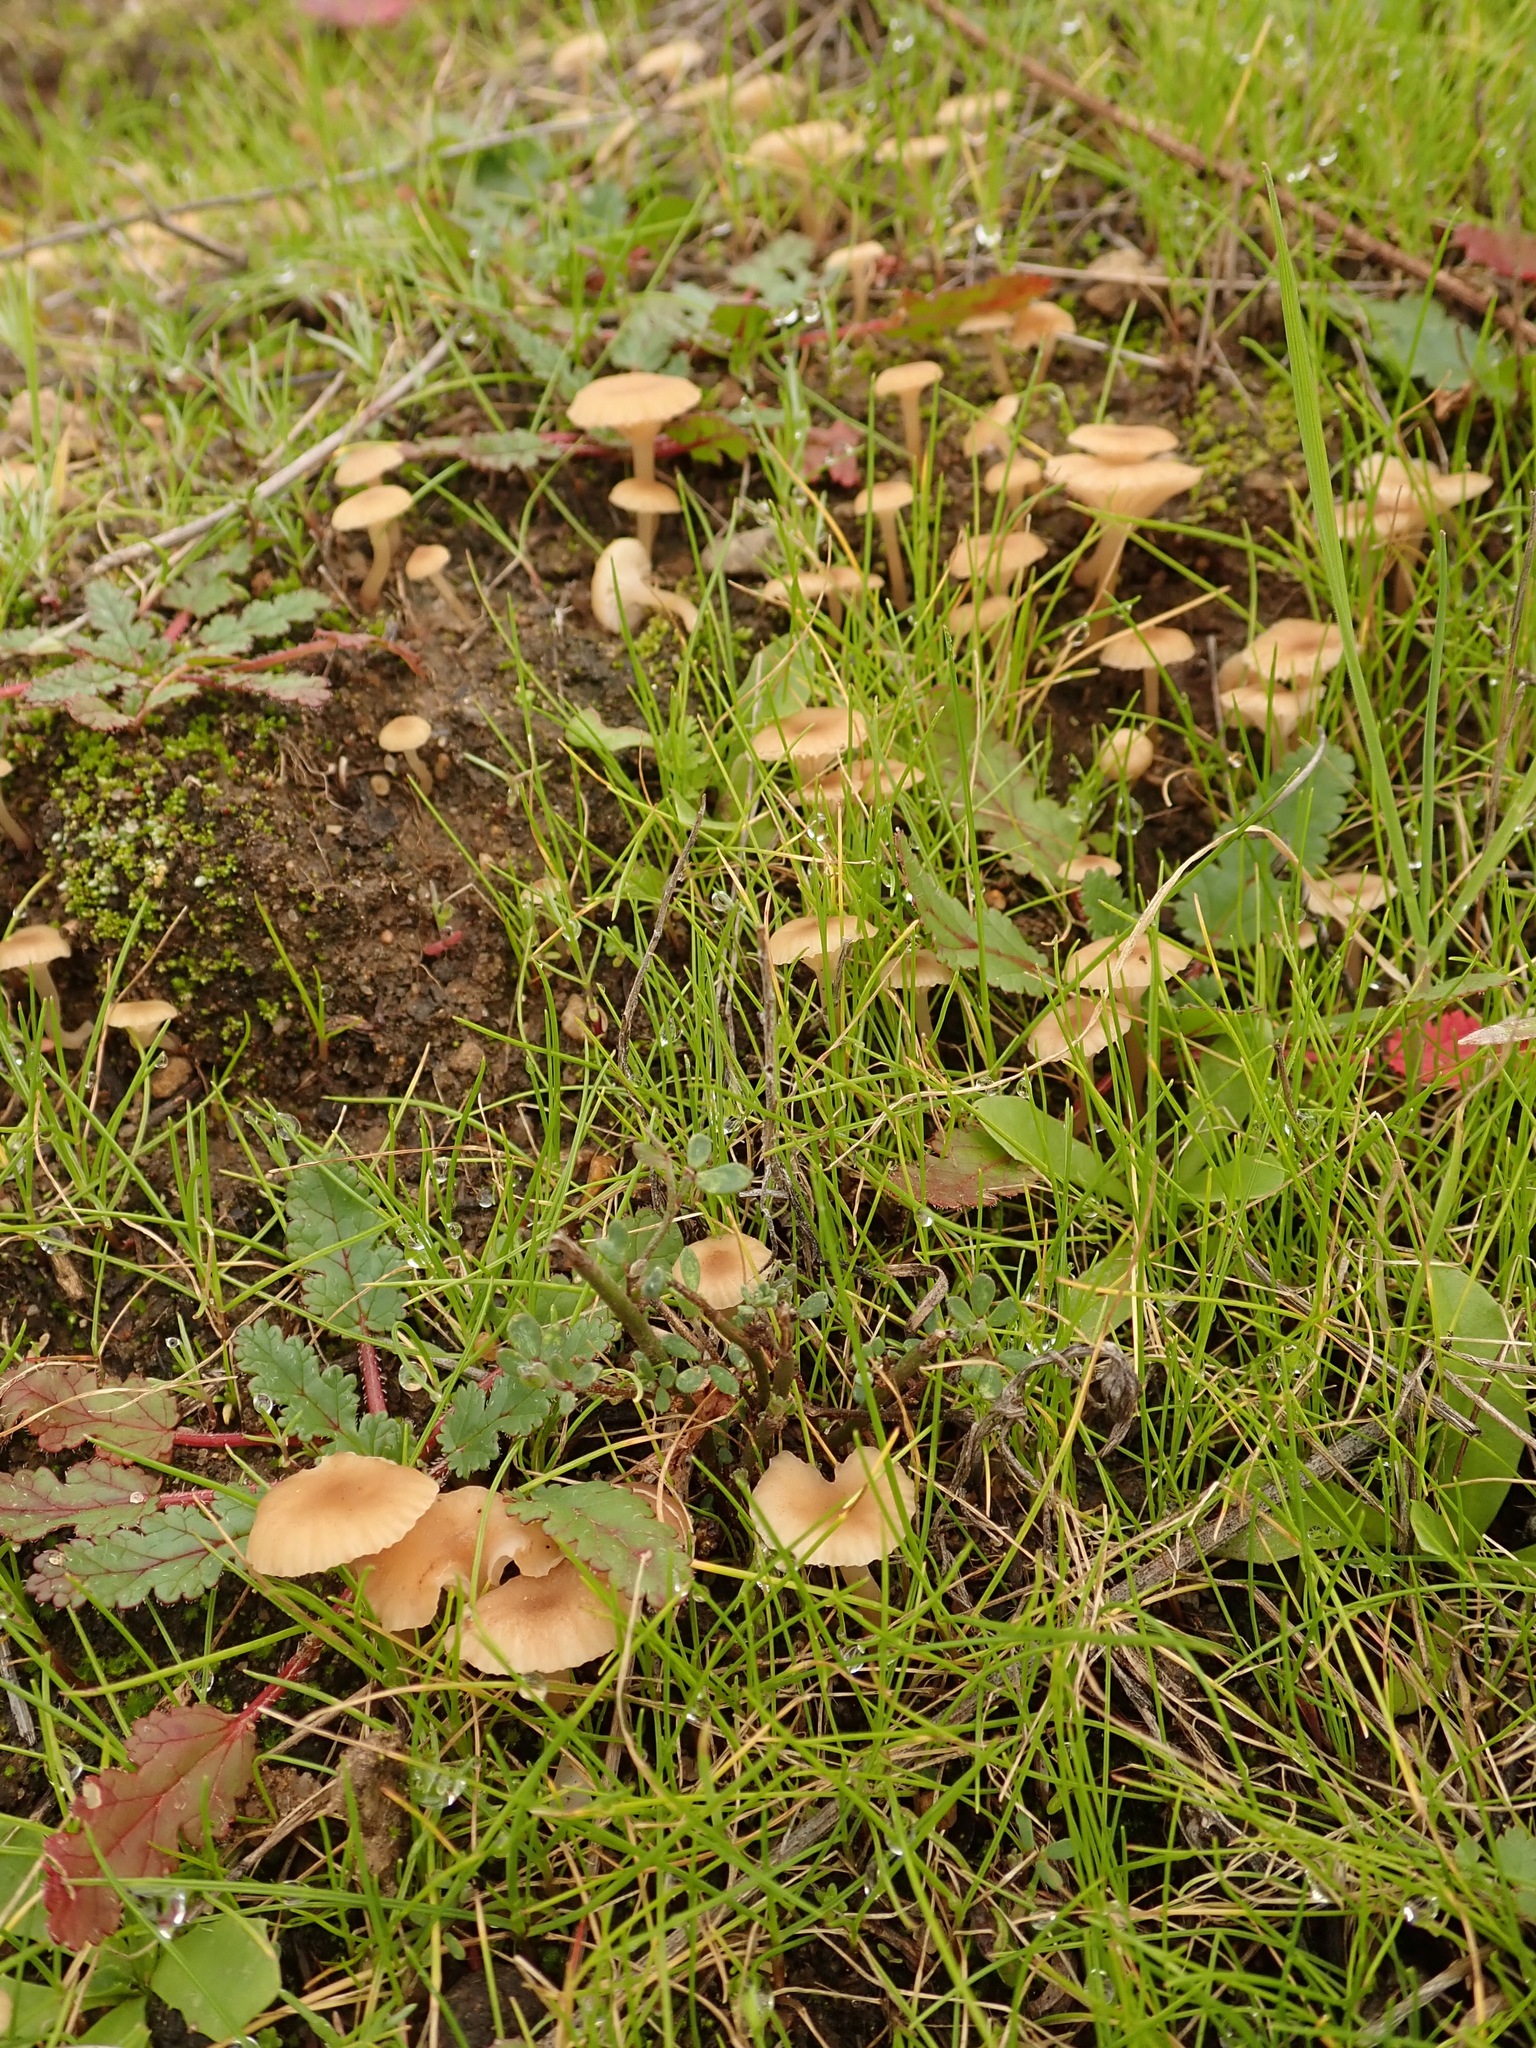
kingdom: Fungi
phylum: Basidiomycota
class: Agaricomycetes
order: Hymenochaetales
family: Rickenellaceae
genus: Contumyces
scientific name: Contumyces rosellus
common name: Rosy navel
